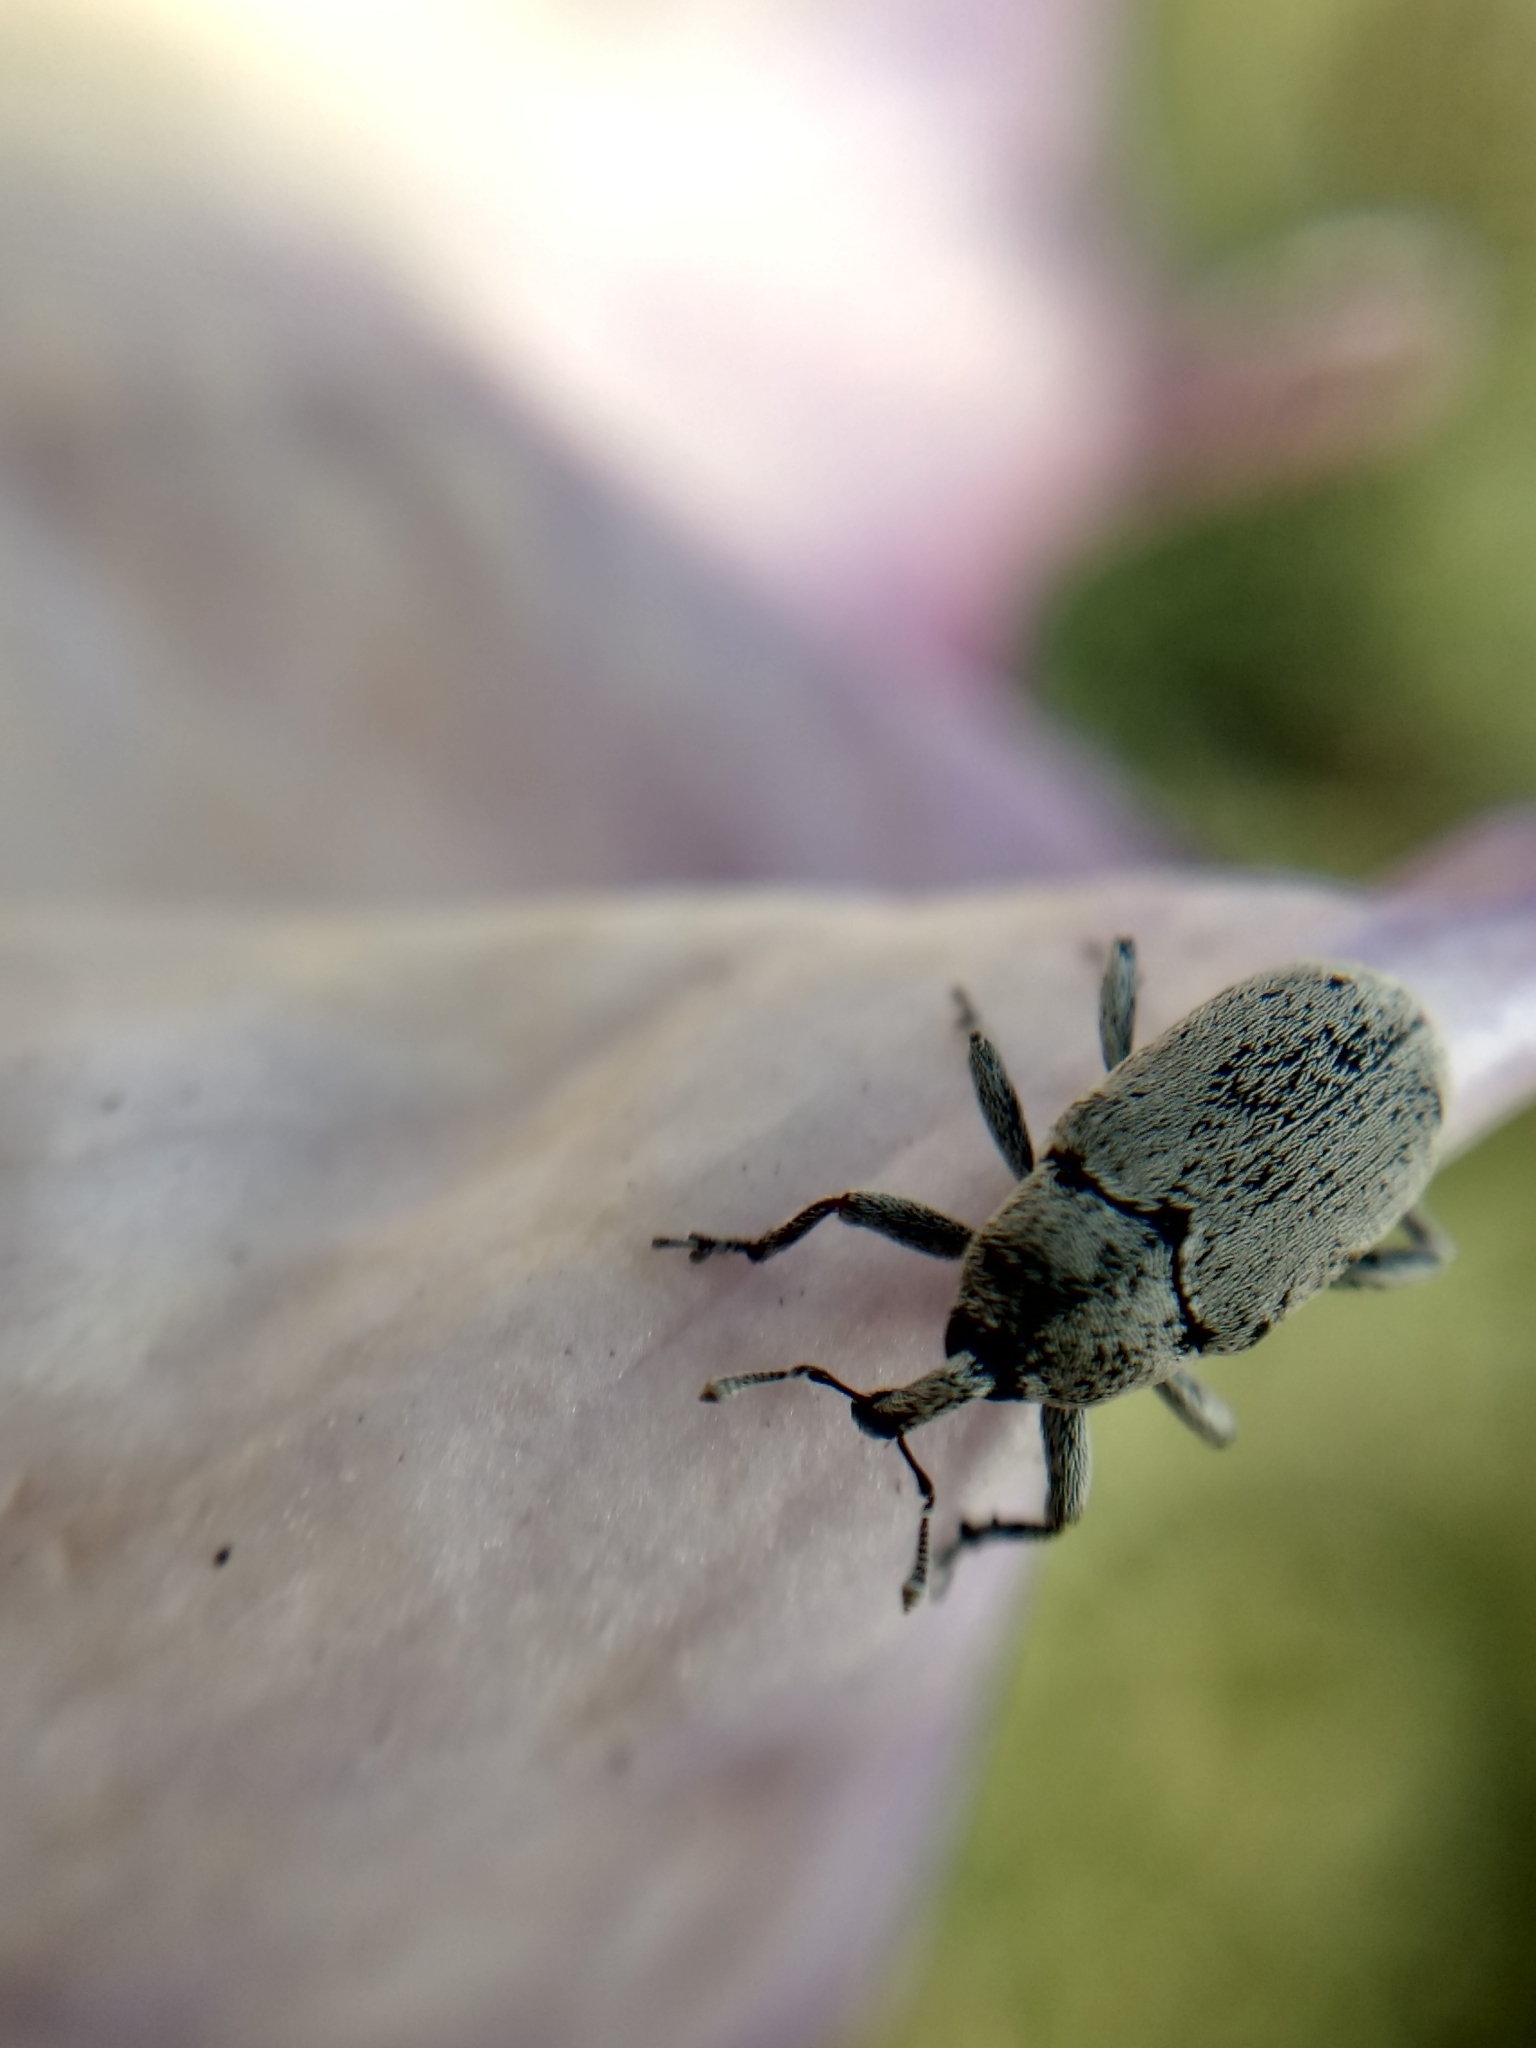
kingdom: Animalia
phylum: Arthropoda
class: Insecta
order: Coleoptera
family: Curculionidae
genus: Trichobaris
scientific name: Trichobaris compacta
